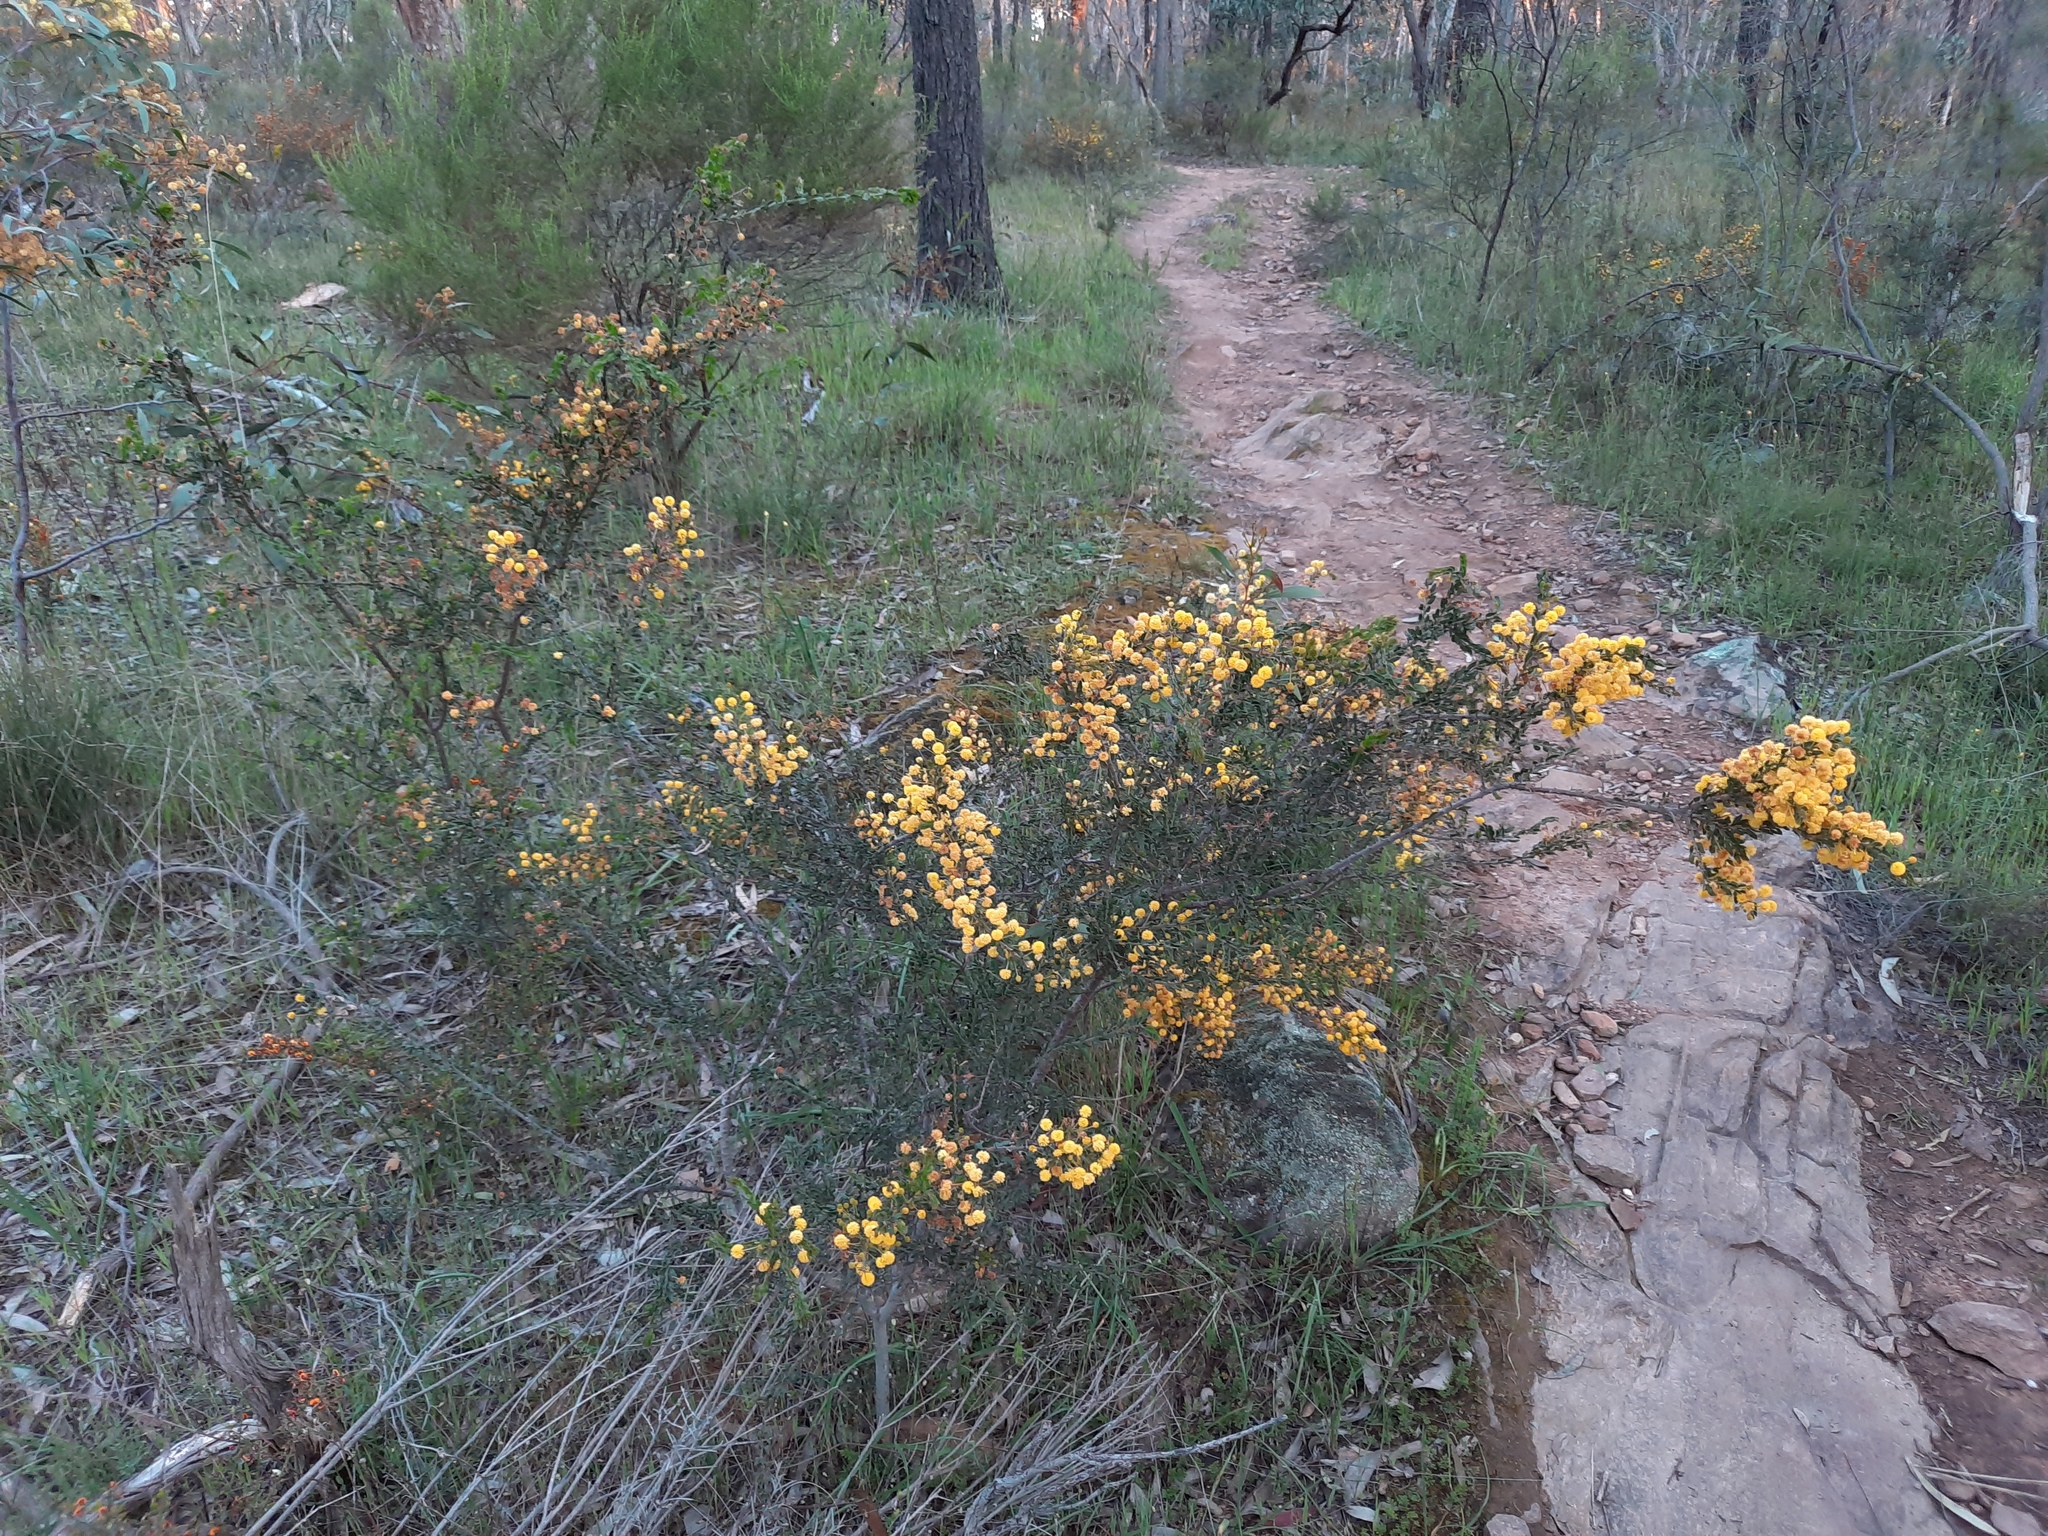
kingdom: Plantae
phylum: Tracheophyta
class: Magnoliopsida
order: Fabales
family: Fabaceae
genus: Acacia
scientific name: Acacia paradoxa
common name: Paradox acacia
